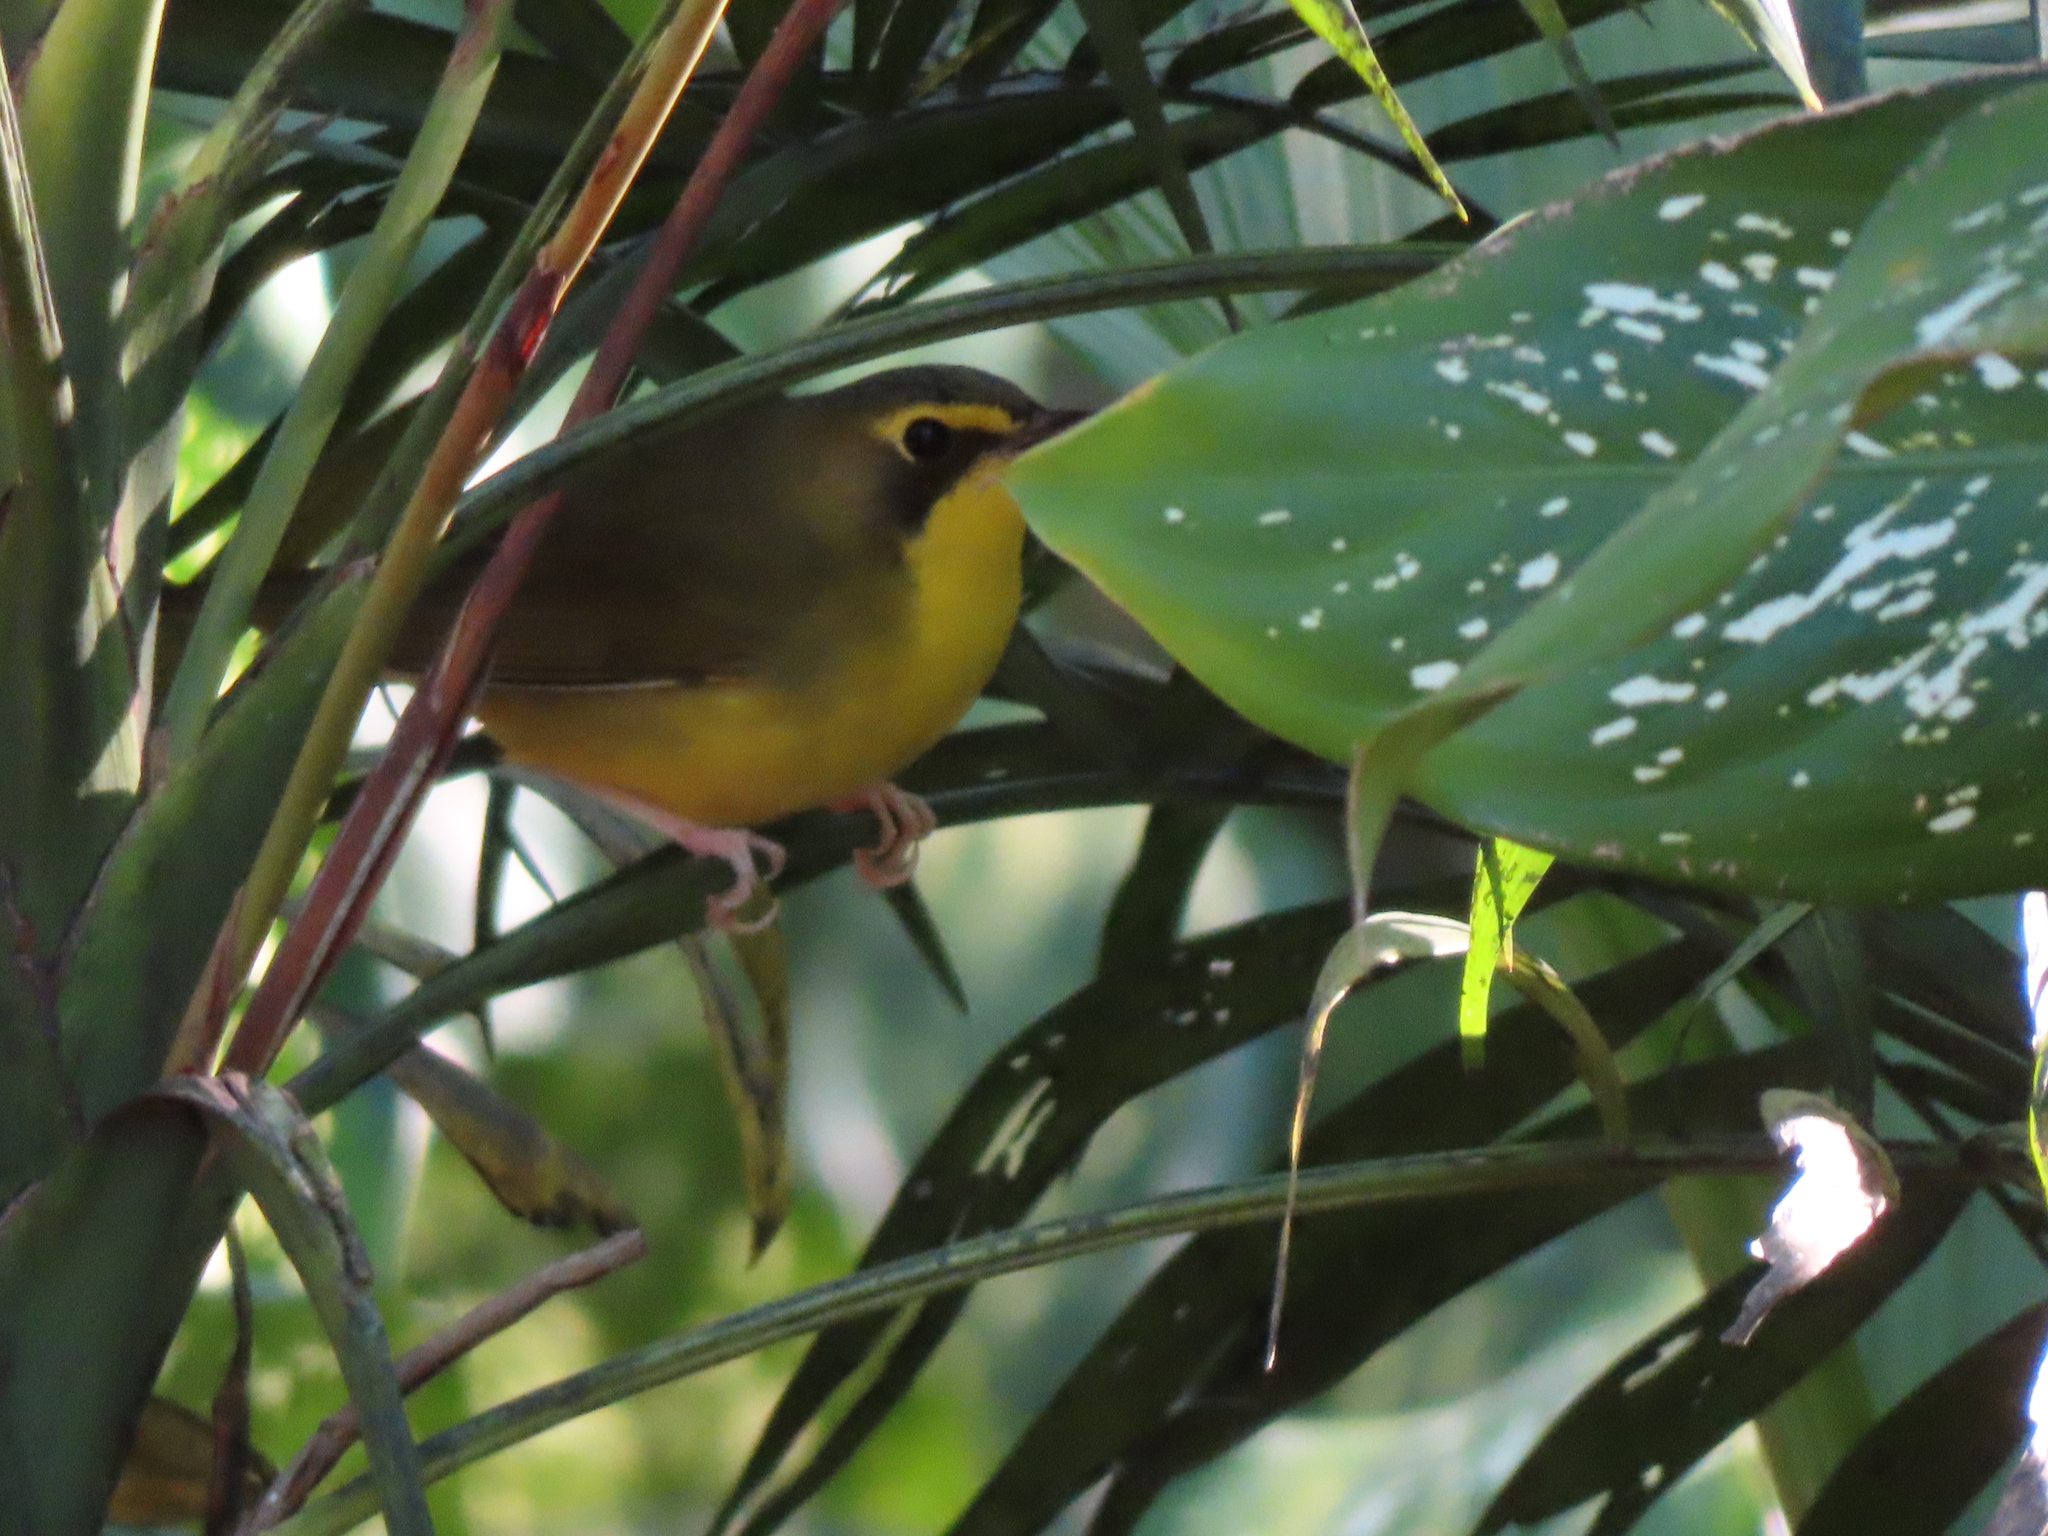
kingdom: Animalia
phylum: Chordata
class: Aves
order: Passeriformes
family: Parulidae
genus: Geothlypis
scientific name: Geothlypis formosa
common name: Kentucky warbler
